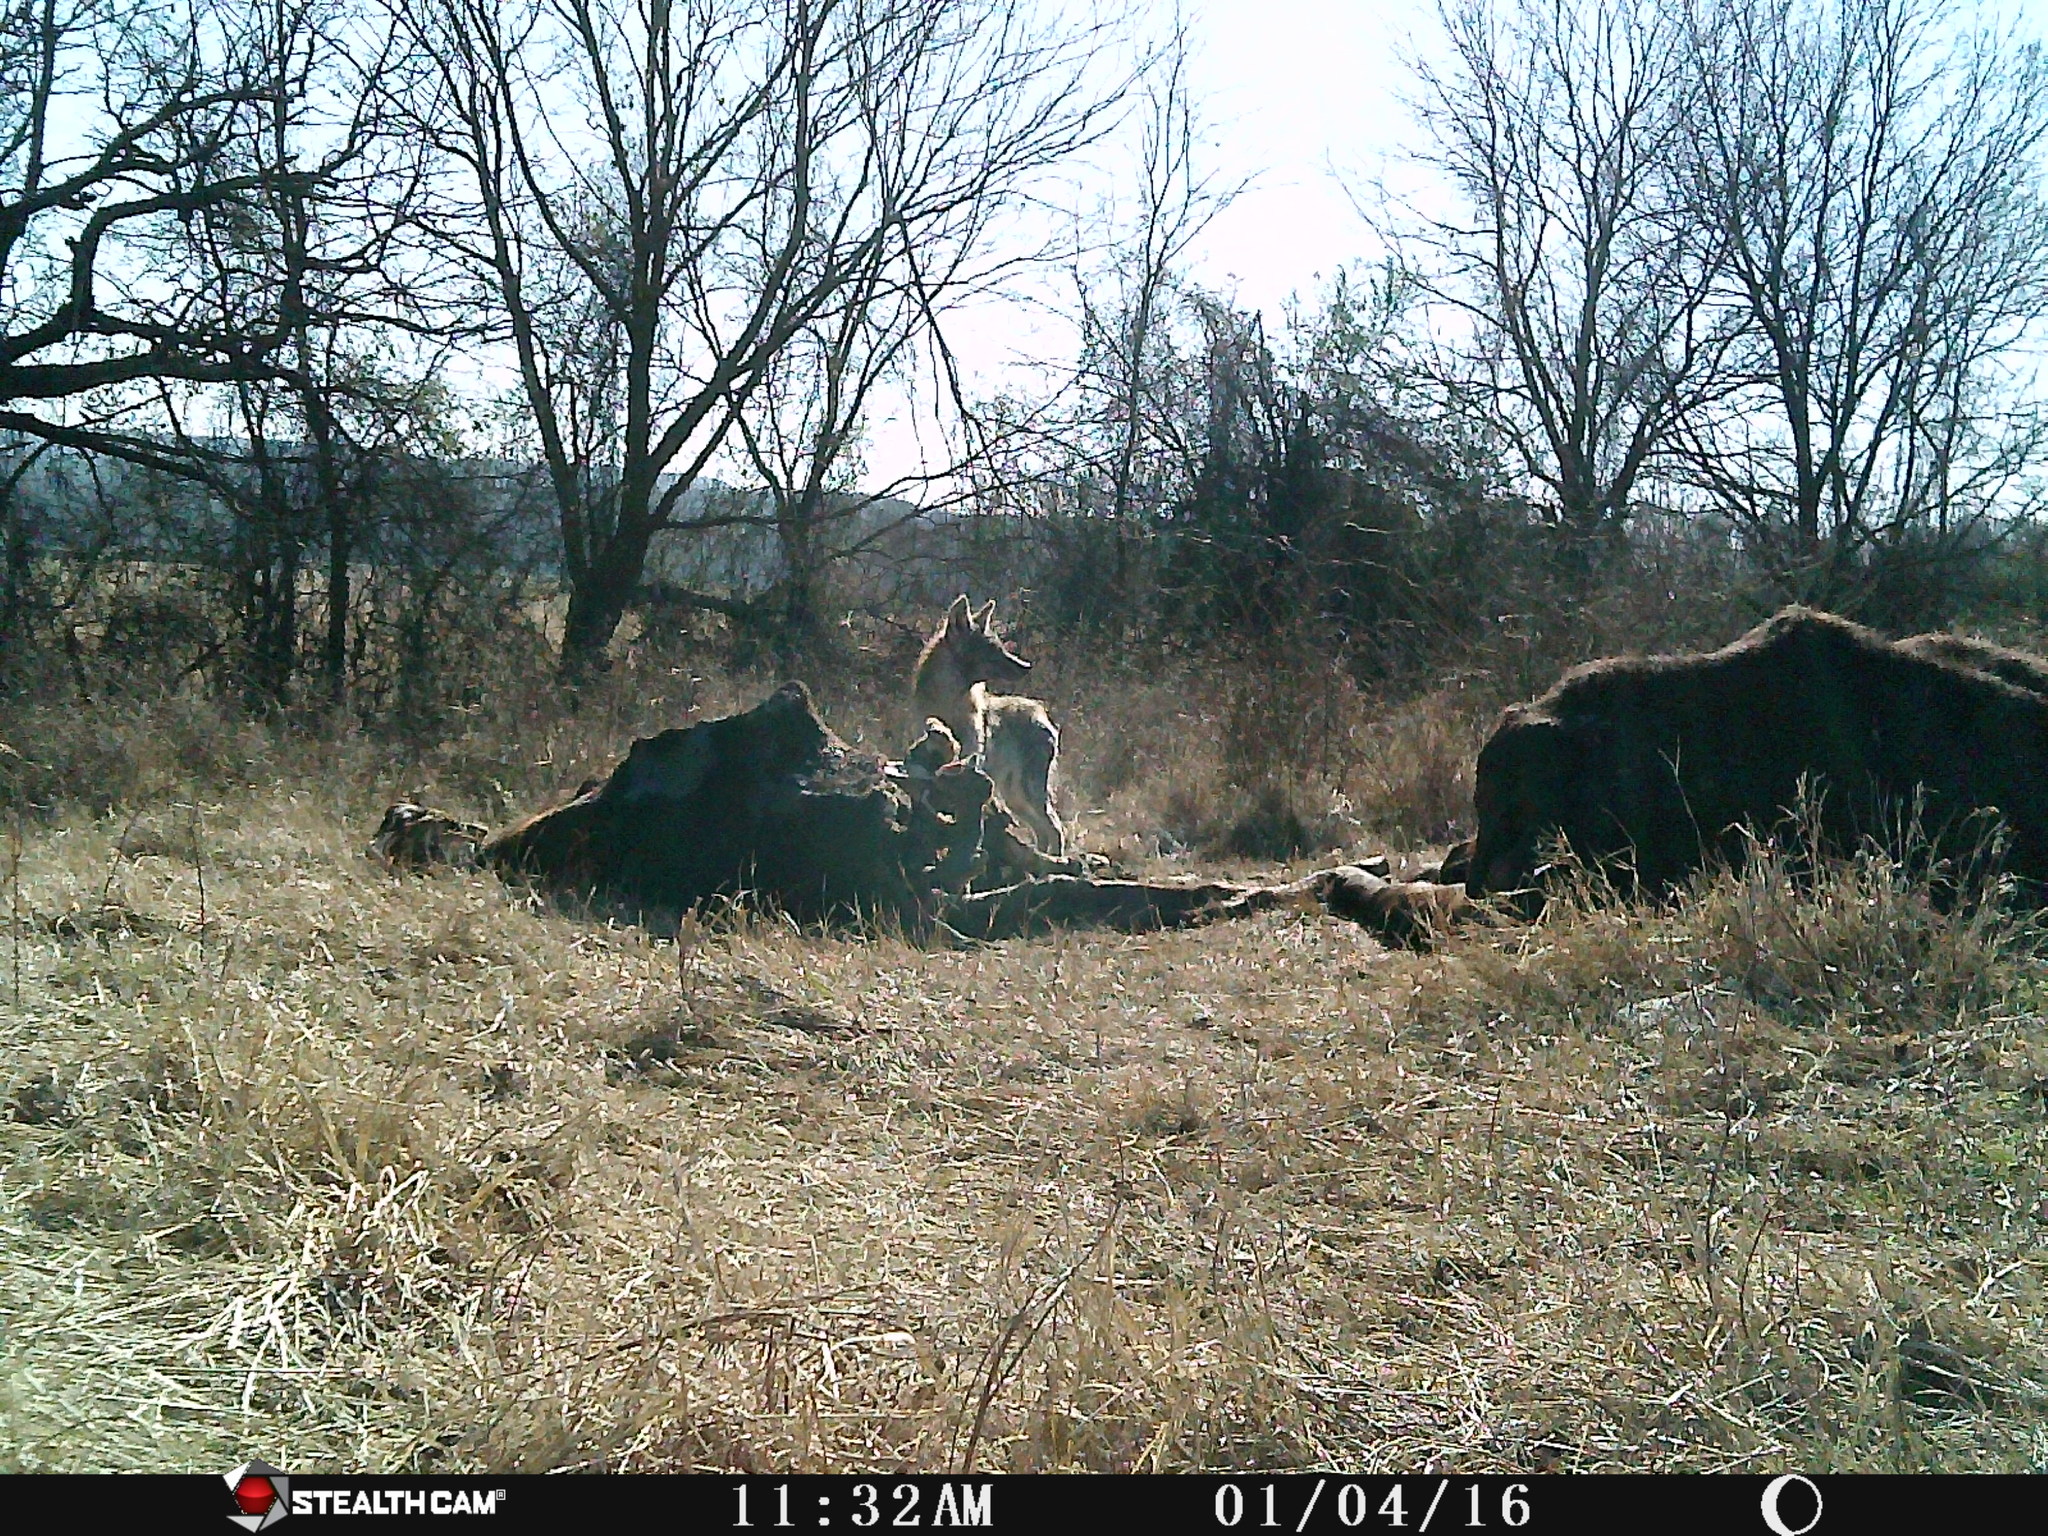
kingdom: Animalia
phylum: Chordata
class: Mammalia
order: Carnivora
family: Canidae
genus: Canis
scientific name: Canis latrans
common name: Coyote
